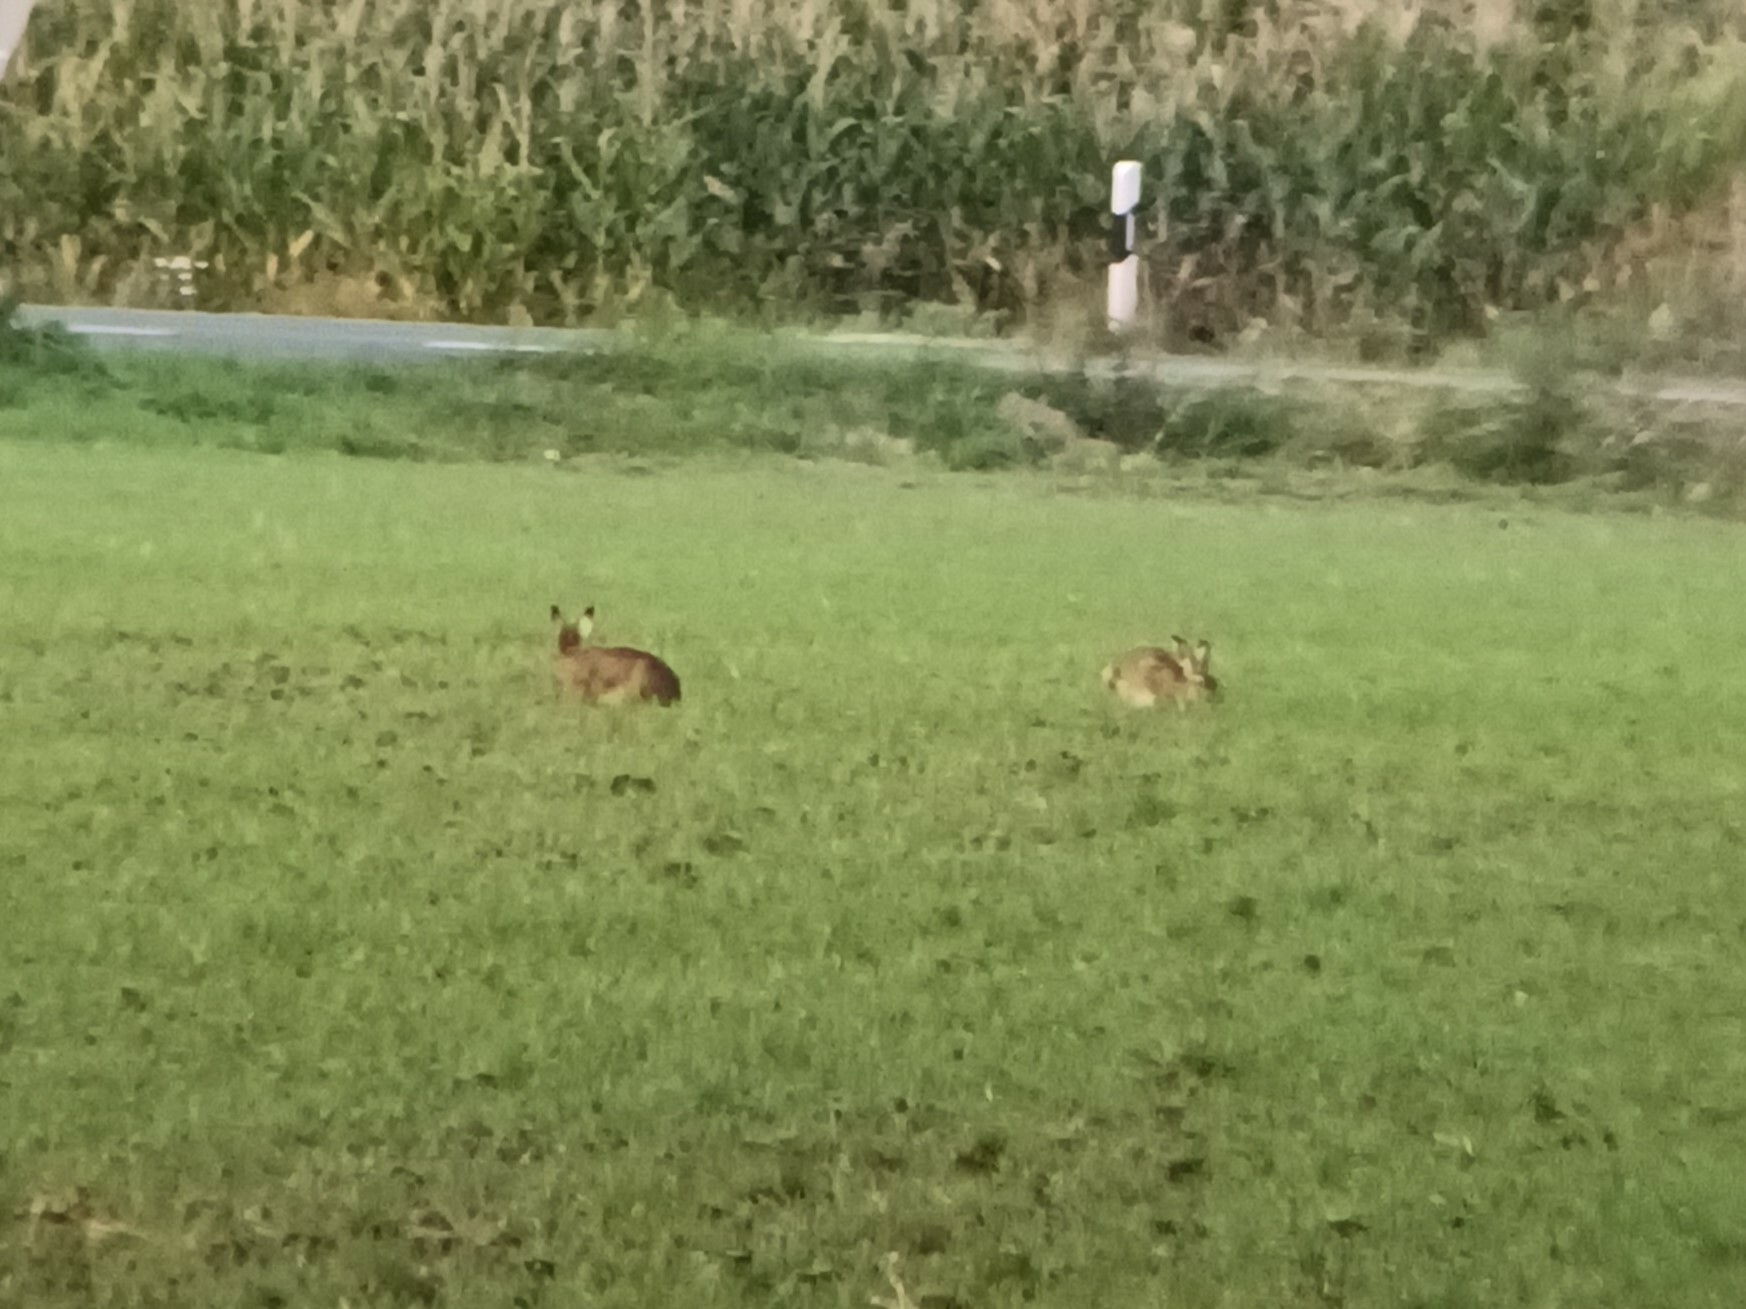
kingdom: Animalia
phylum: Chordata
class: Mammalia
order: Lagomorpha
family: Leporidae
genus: Lepus
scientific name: Lepus europaeus
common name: European hare
